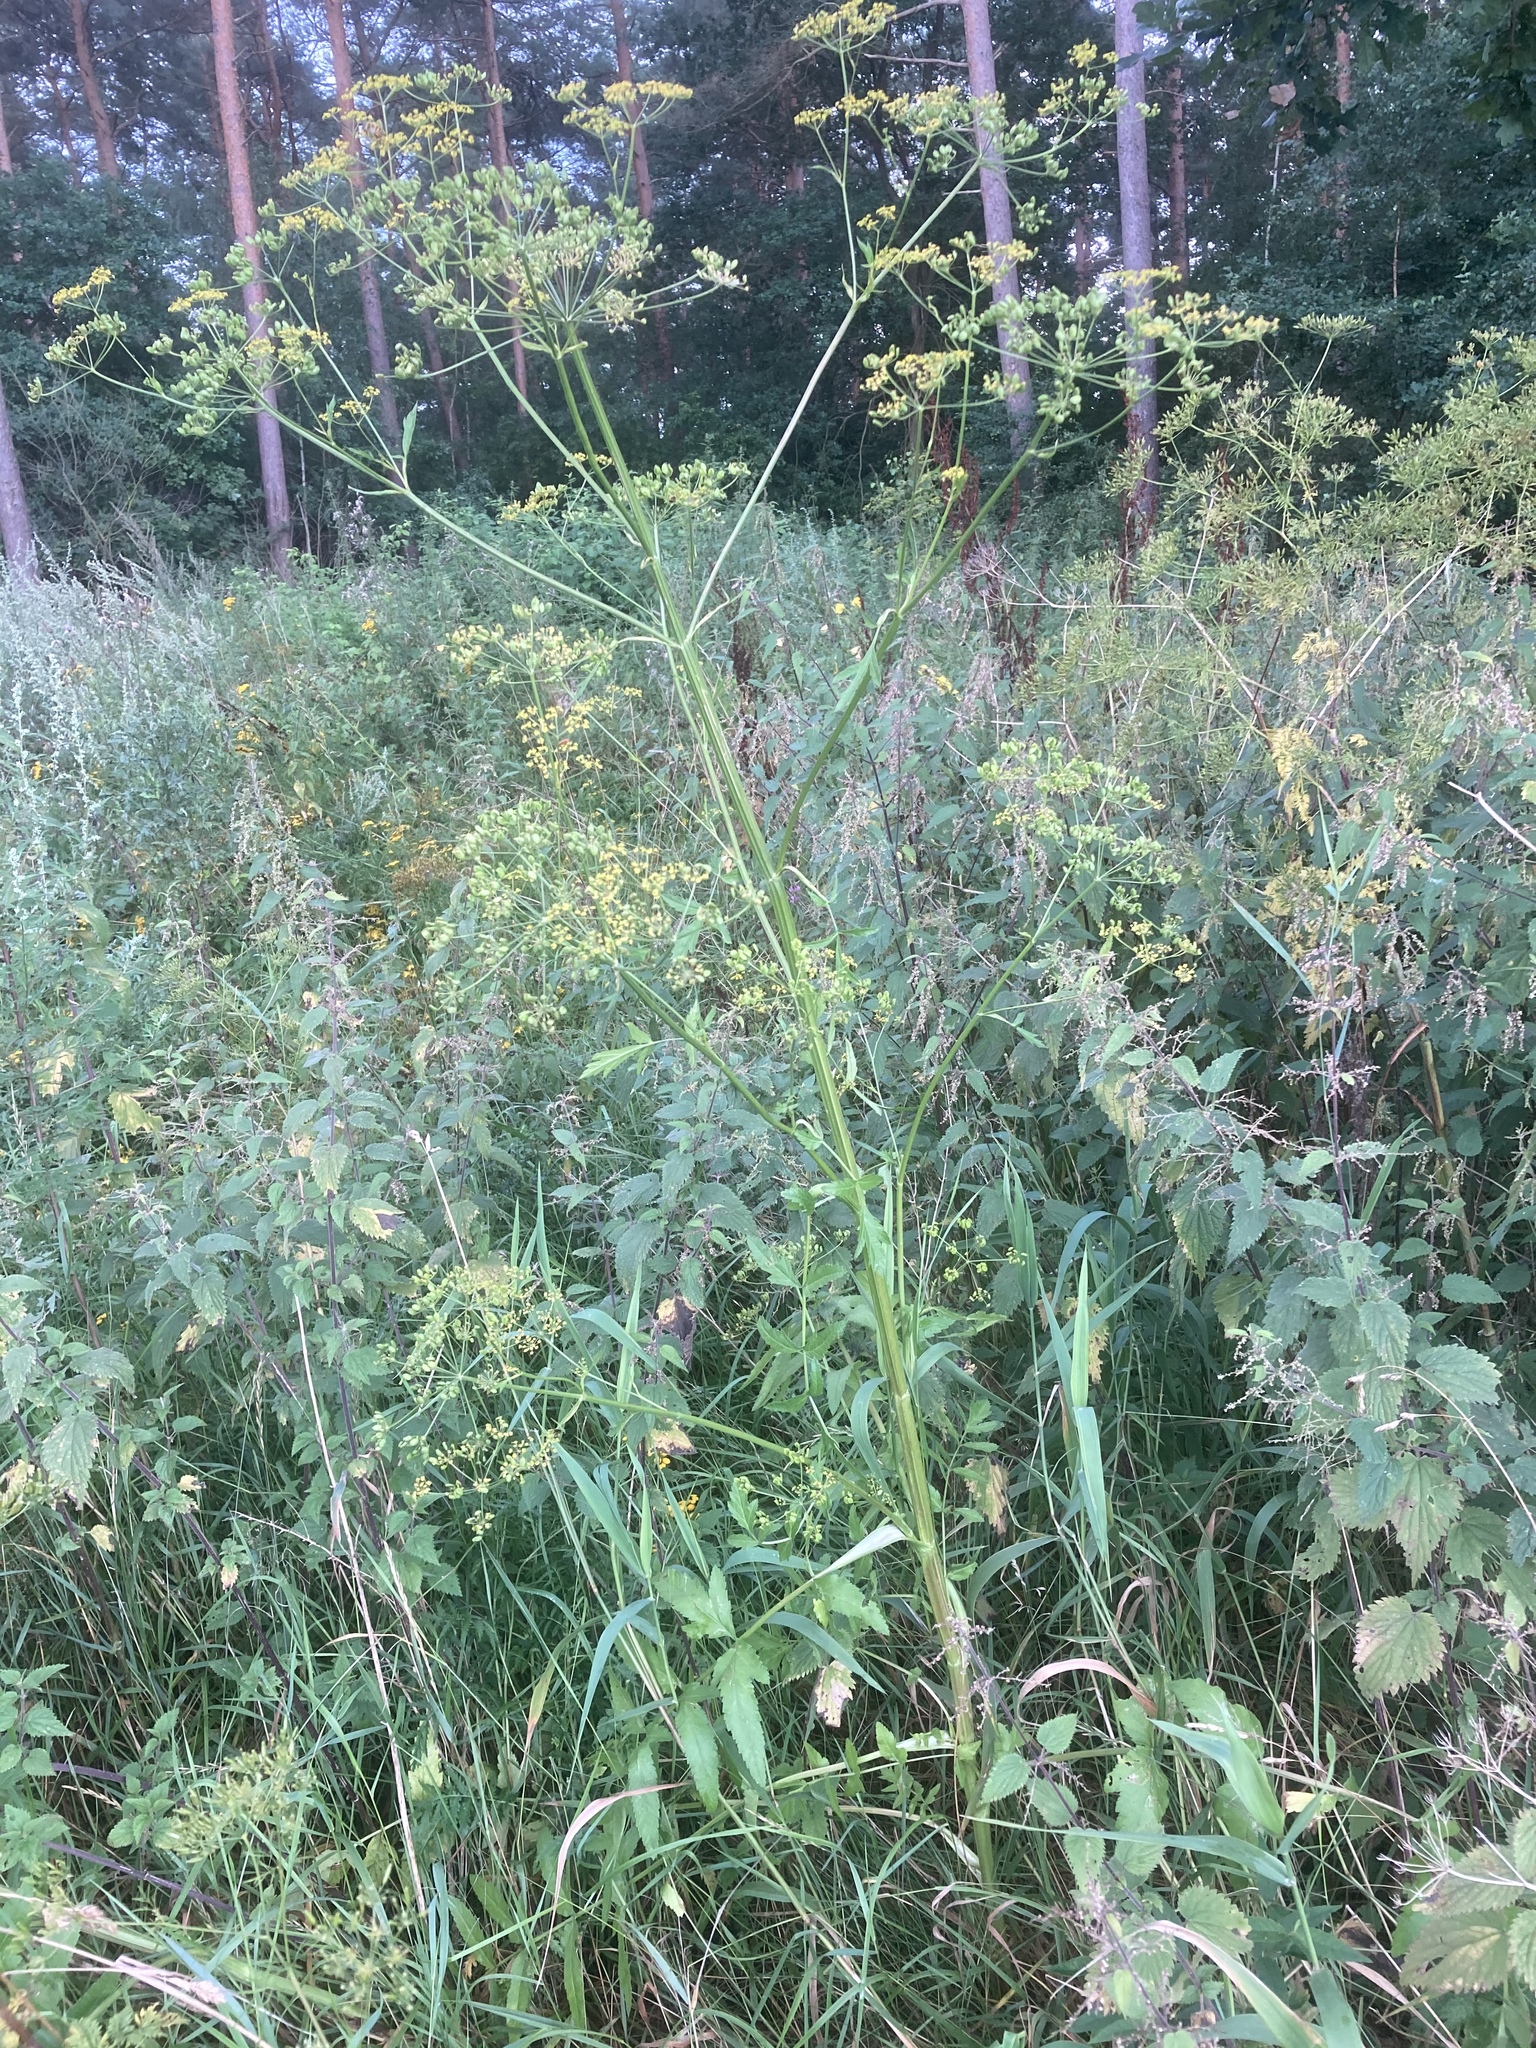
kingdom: Plantae
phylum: Tracheophyta
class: Magnoliopsida
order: Apiales
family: Apiaceae
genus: Pastinaca
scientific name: Pastinaca sativa
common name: Wild parsnip
